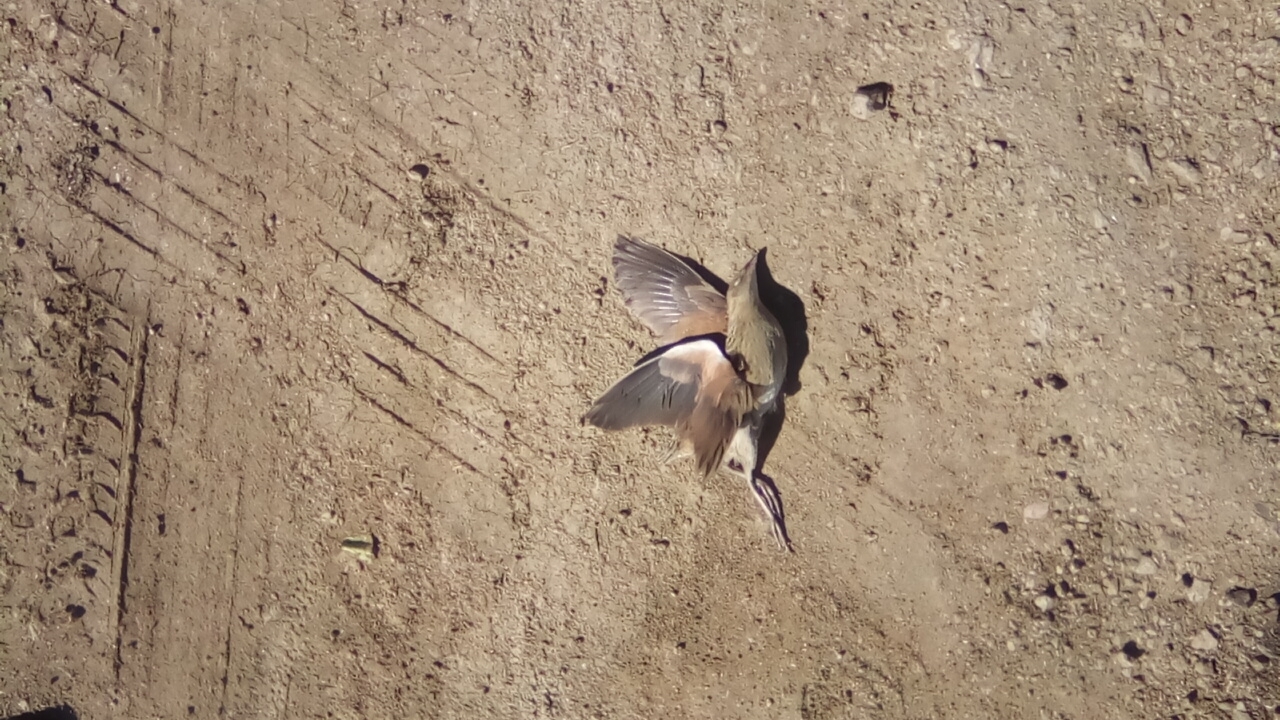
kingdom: Animalia
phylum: Chordata
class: Aves
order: Gruiformes
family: Rallidae
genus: Crex
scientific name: Crex crex
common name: Corn crake
